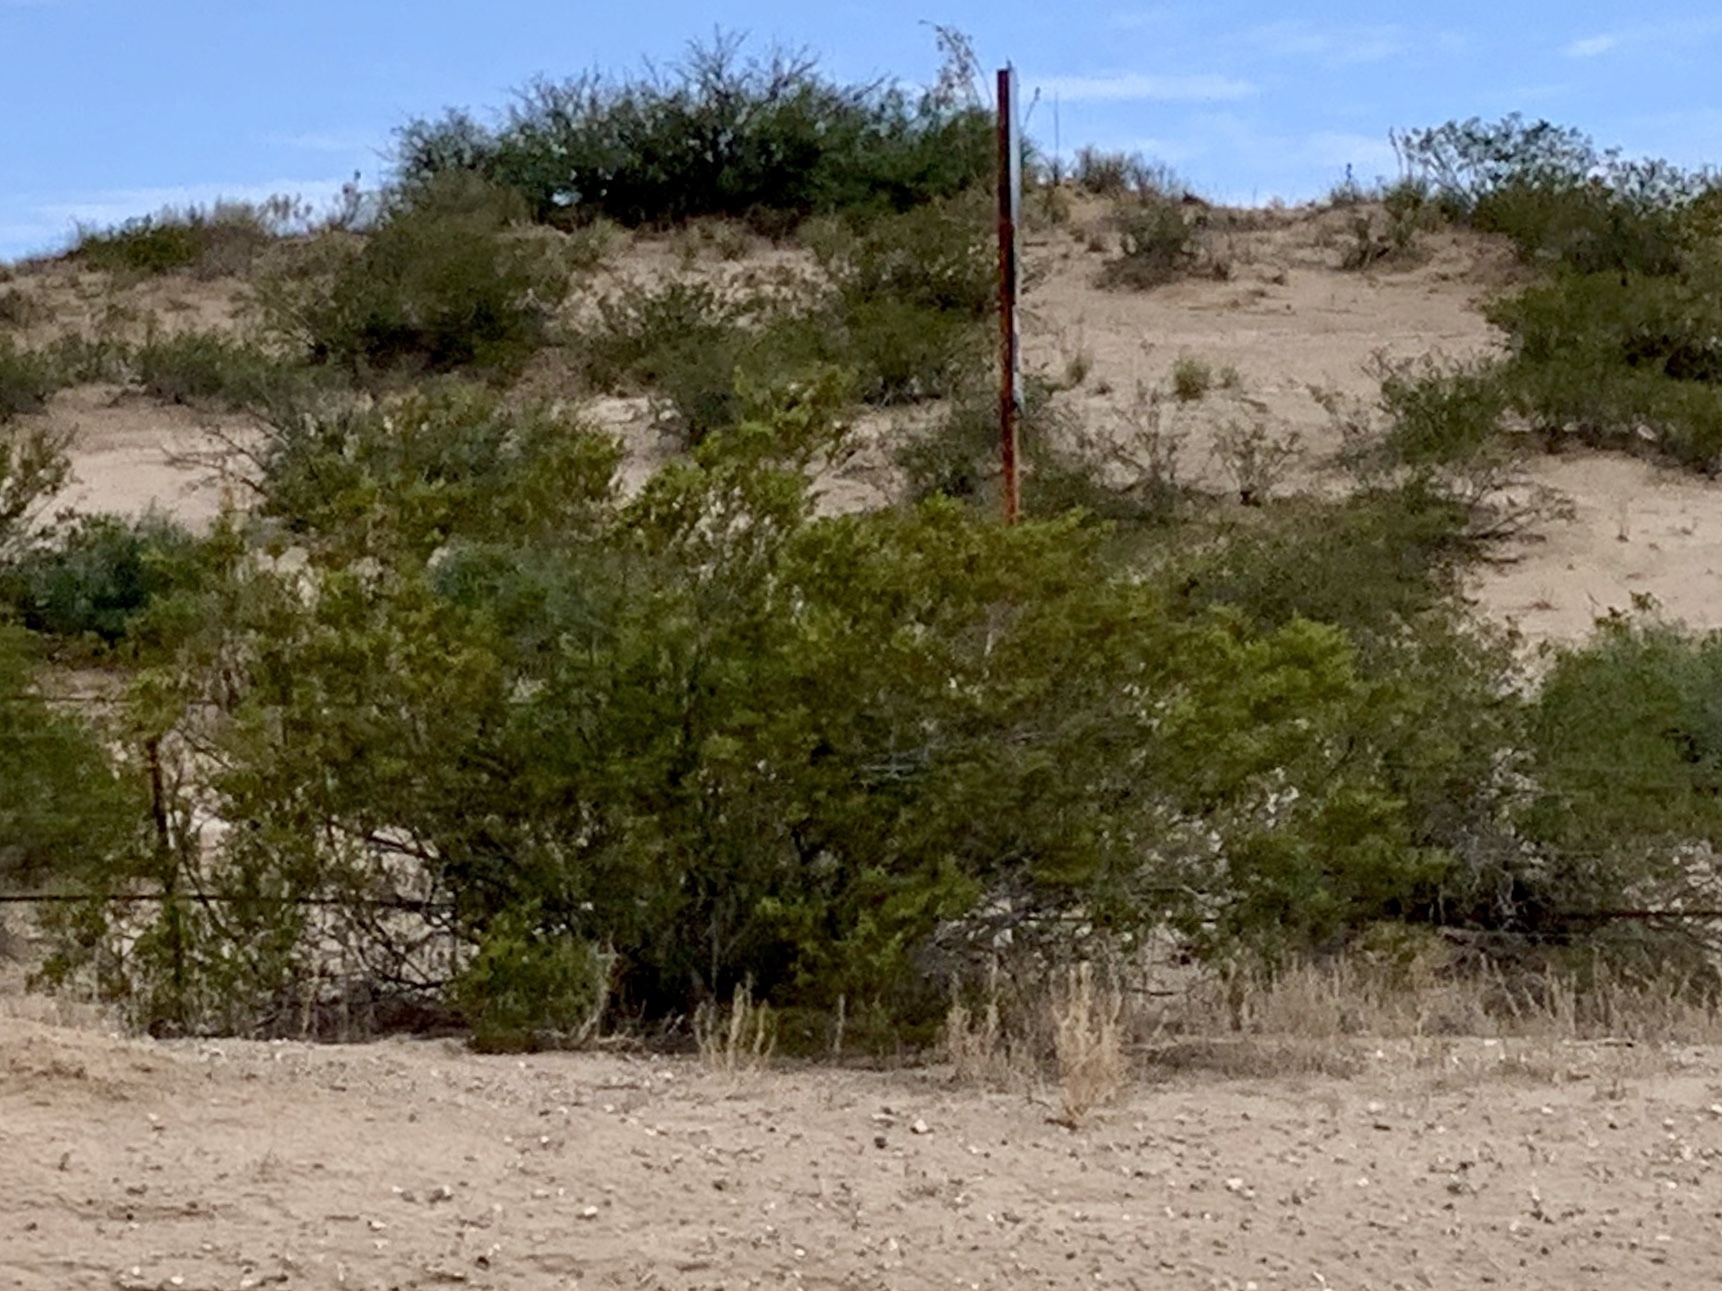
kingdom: Plantae
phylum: Tracheophyta
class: Magnoliopsida
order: Zygophyllales
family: Zygophyllaceae
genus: Larrea
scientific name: Larrea tridentata
